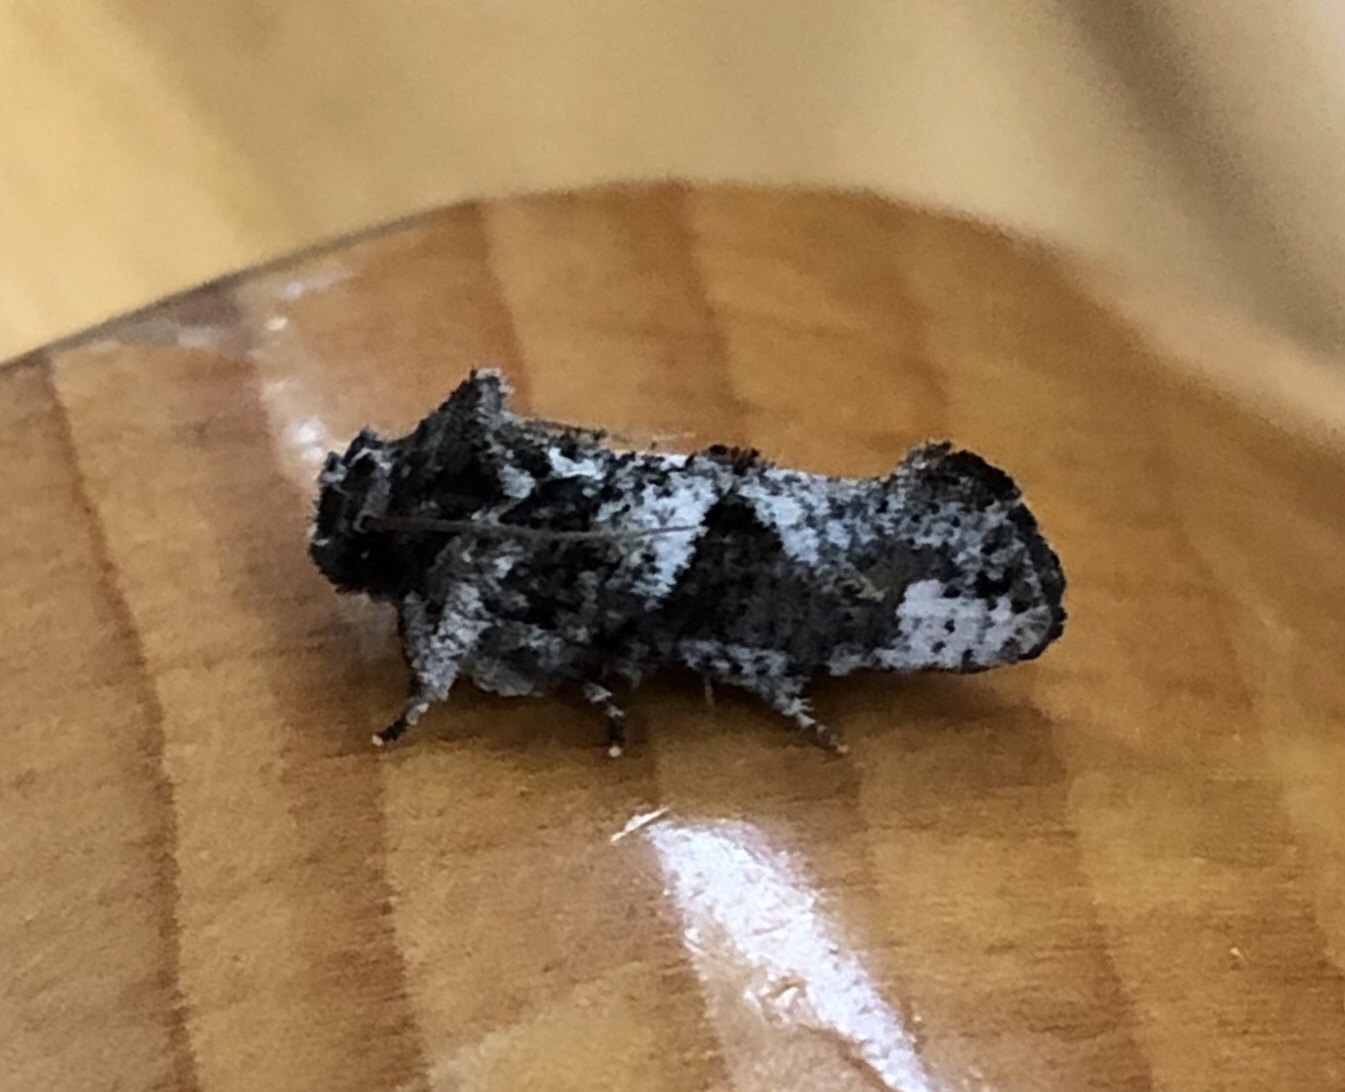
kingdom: Animalia
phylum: Arthropoda
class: Insecta
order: Lepidoptera
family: Tineidae
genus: Acrolophus
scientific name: Acrolophus piger
